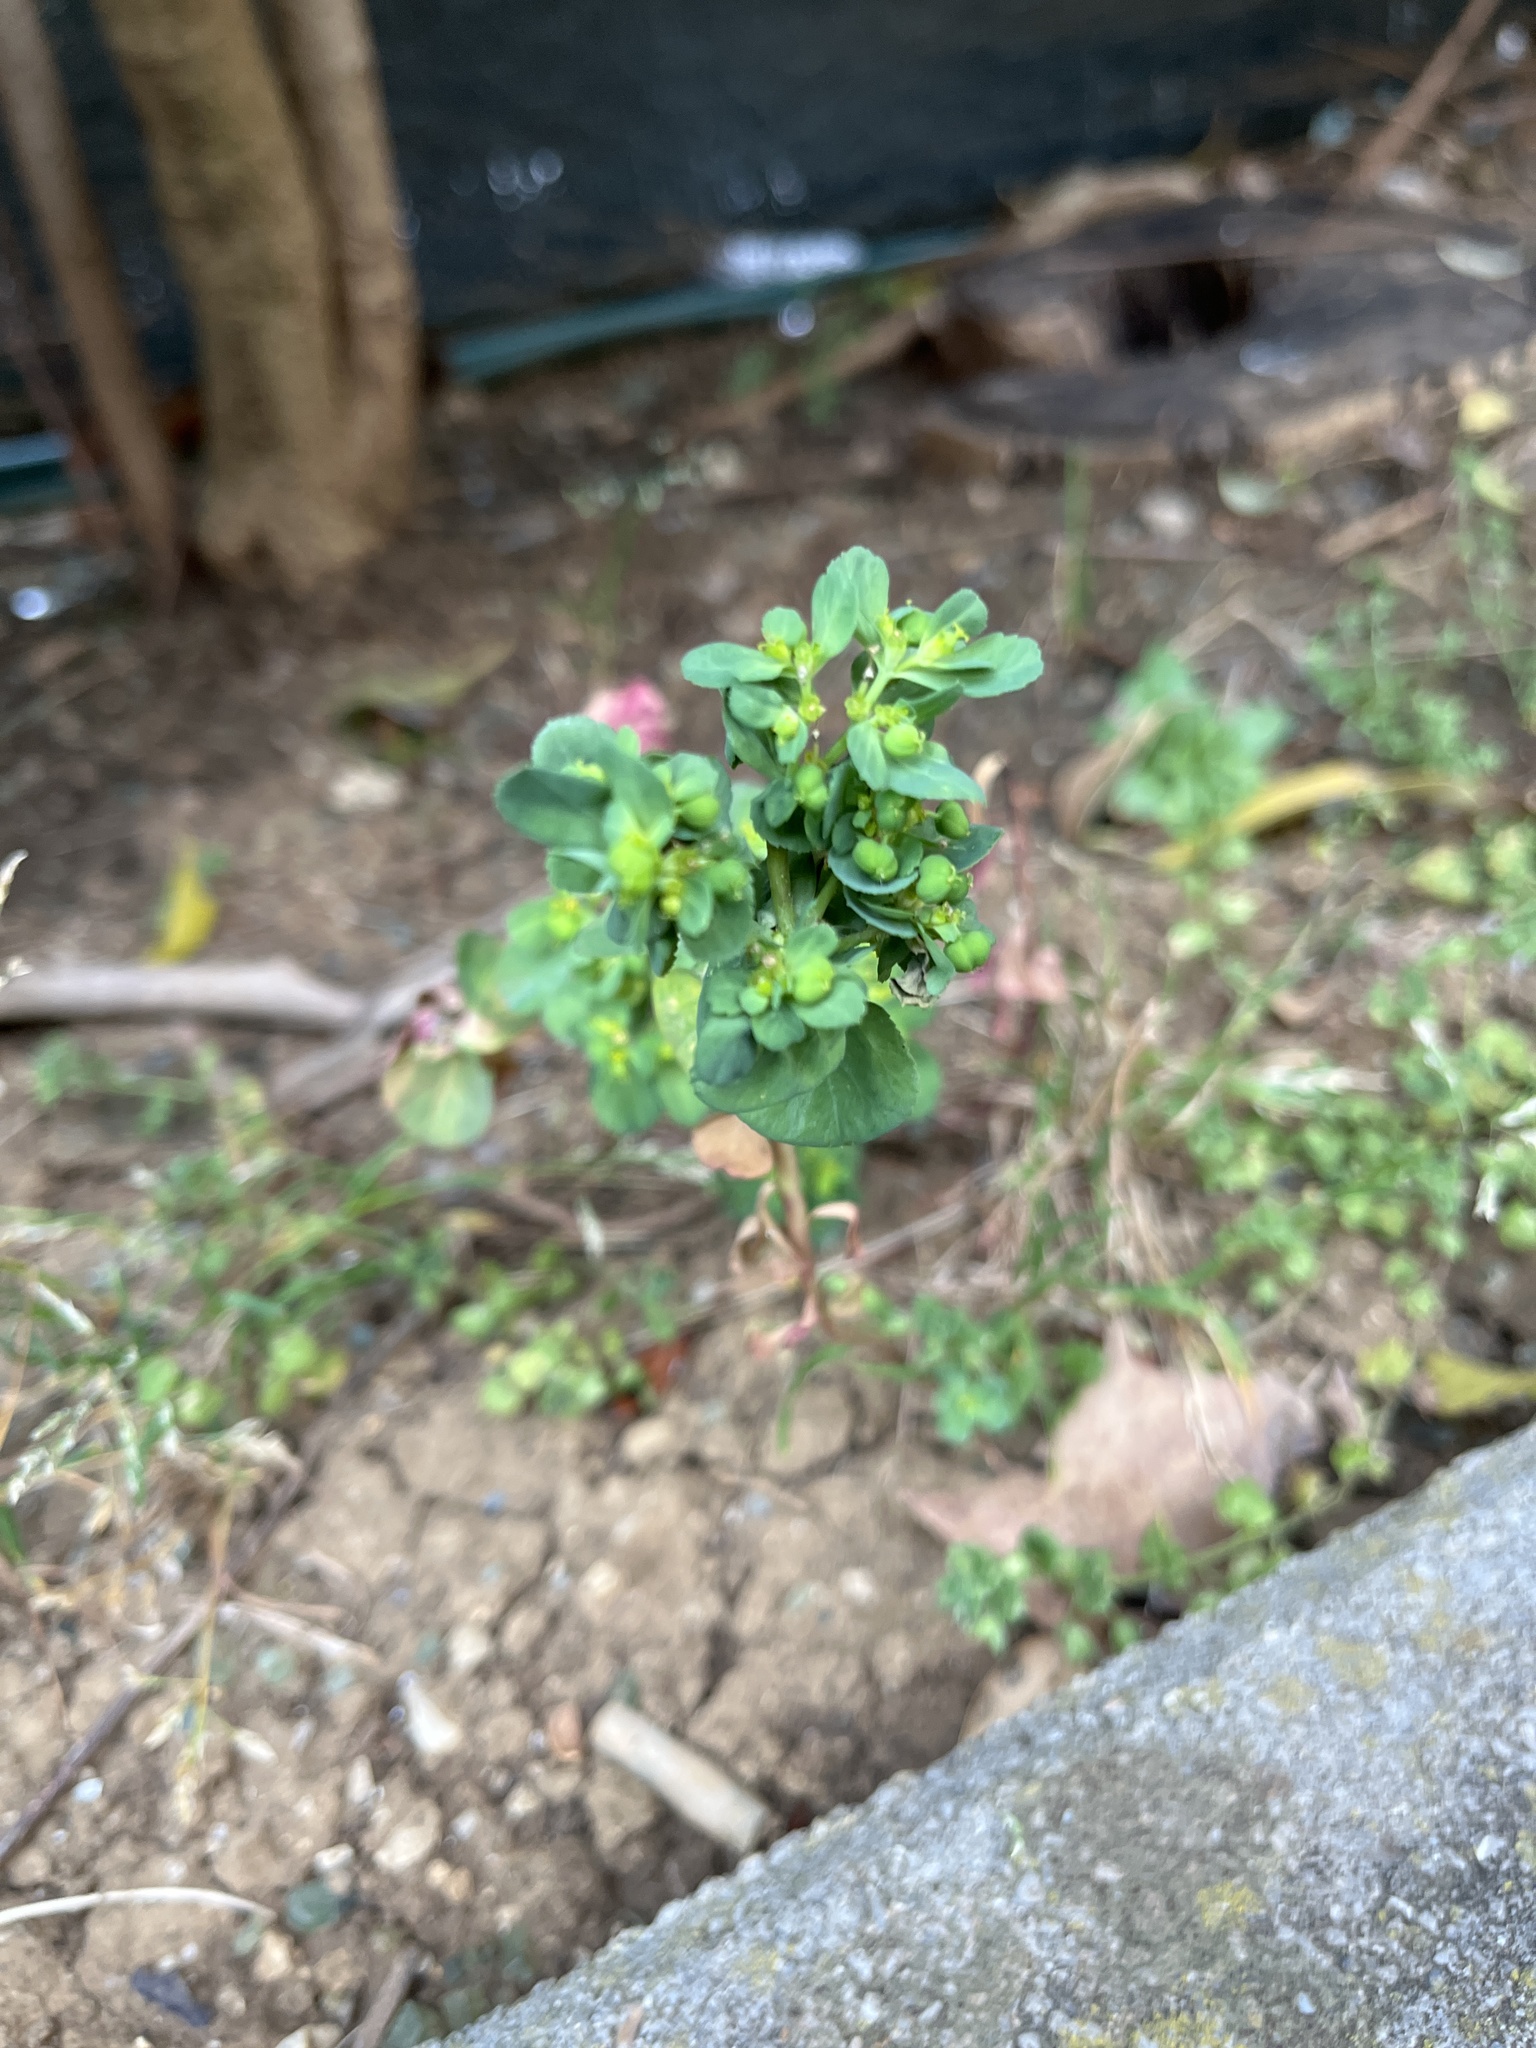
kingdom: Plantae
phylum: Tracheophyta
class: Magnoliopsida
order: Malpighiales
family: Euphorbiaceae
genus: Euphorbia
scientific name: Euphorbia helioscopia
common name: Sun spurge
